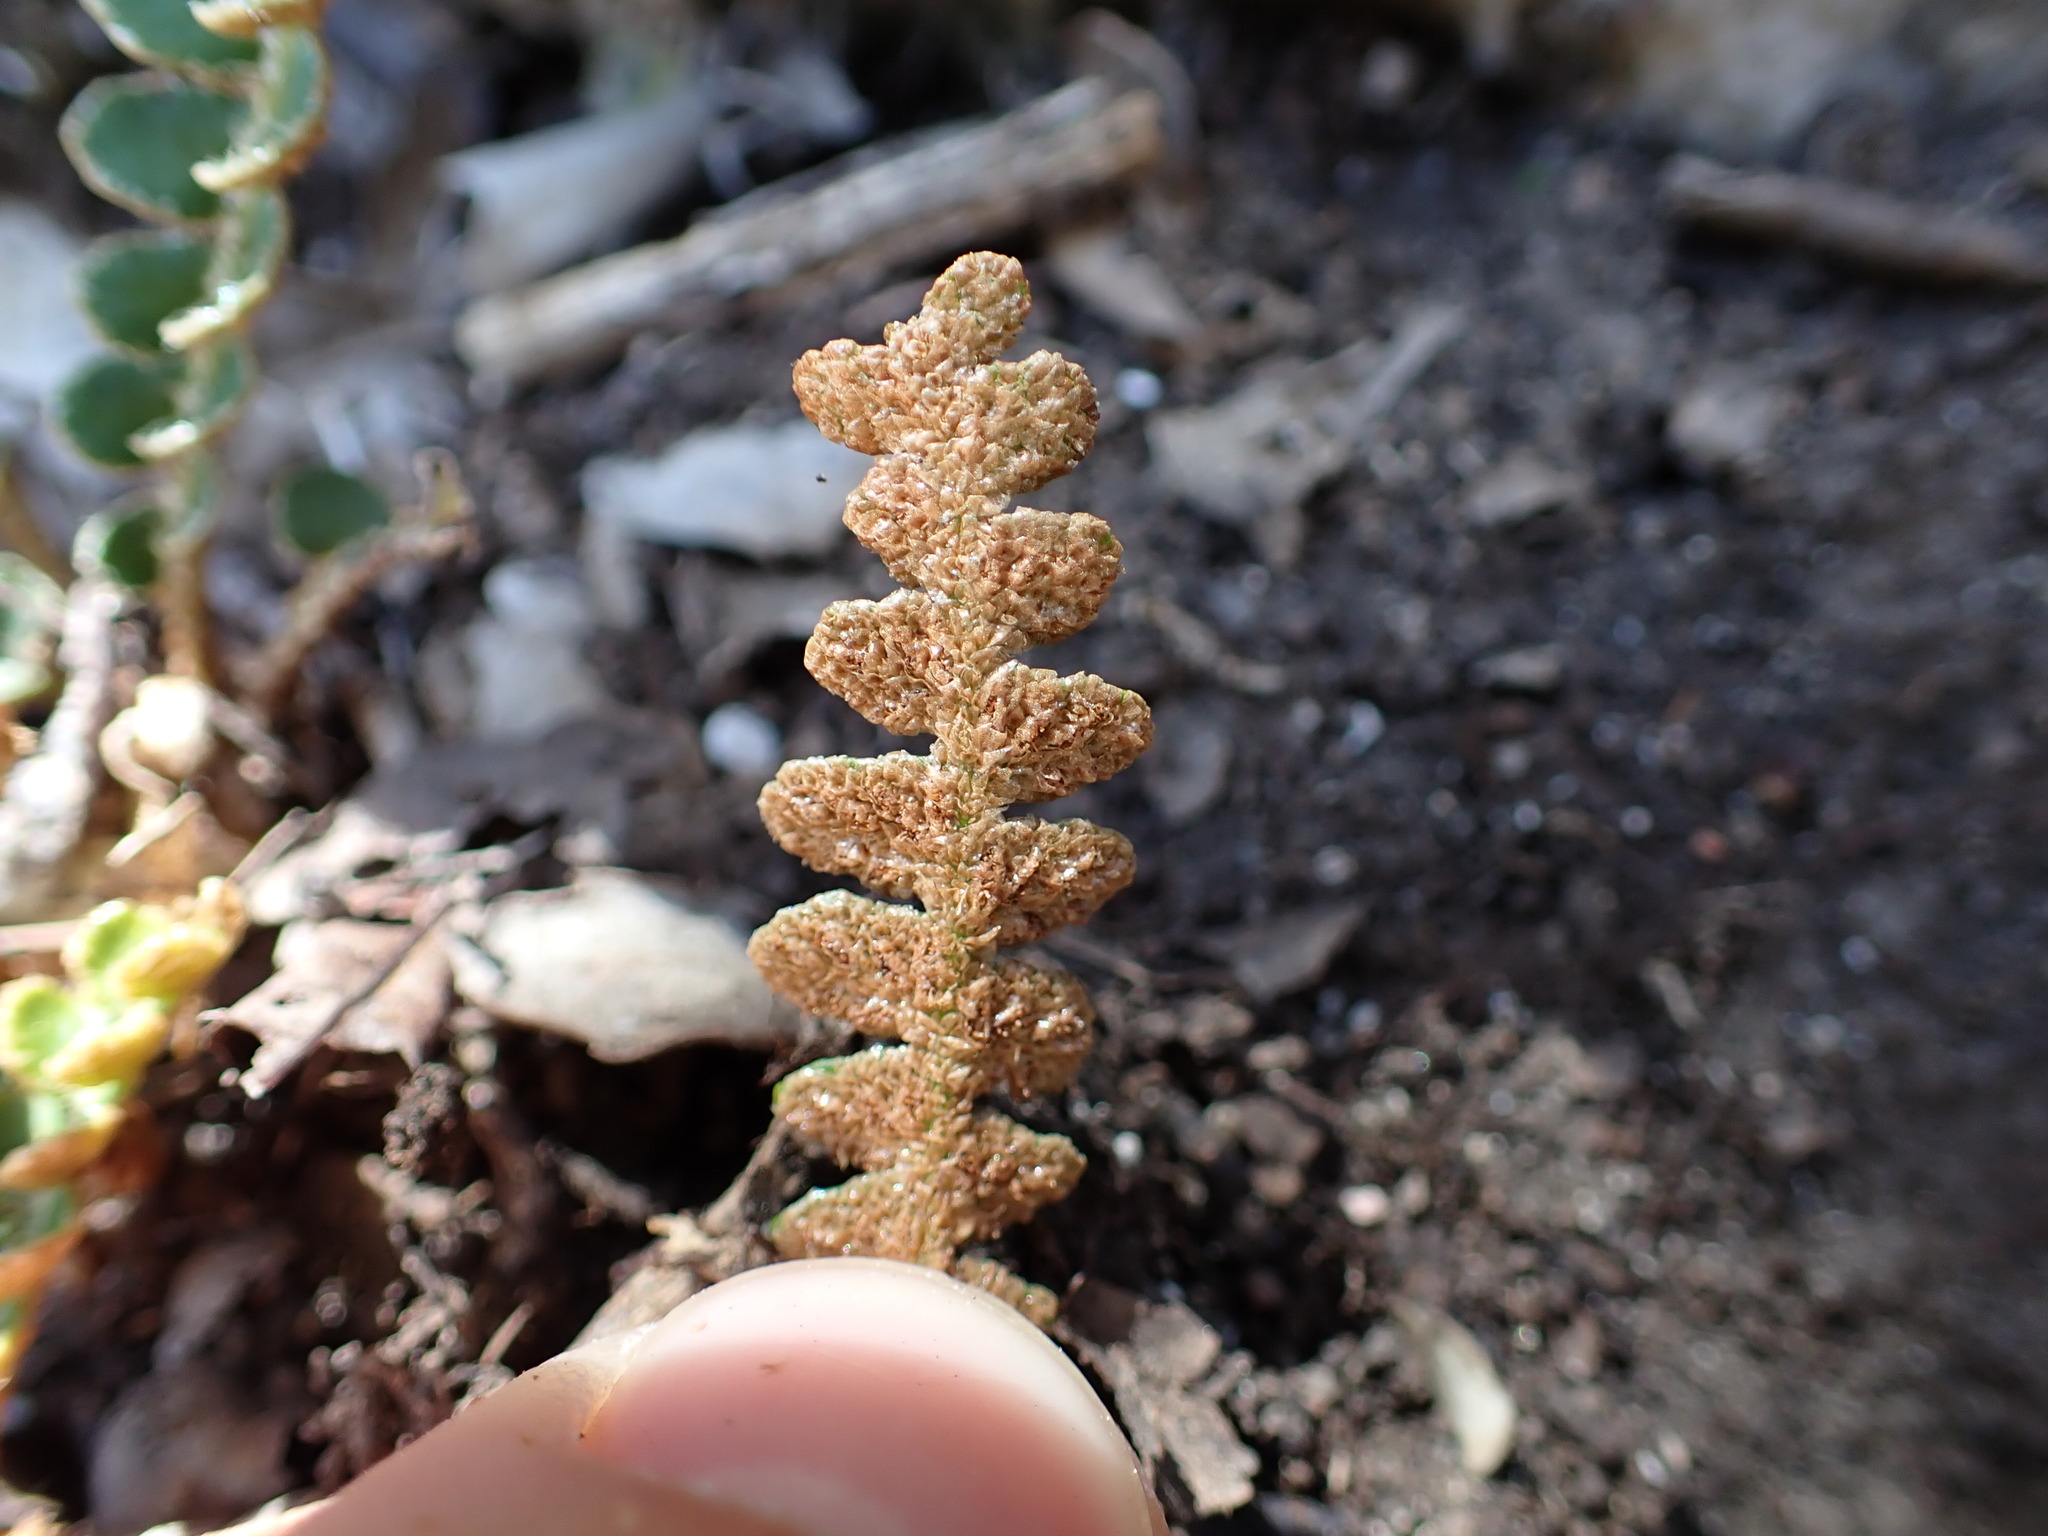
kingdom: Plantae
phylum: Tracheophyta
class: Polypodiopsida
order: Polypodiales
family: Aspleniaceae
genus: Asplenium
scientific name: Asplenium ceterach
